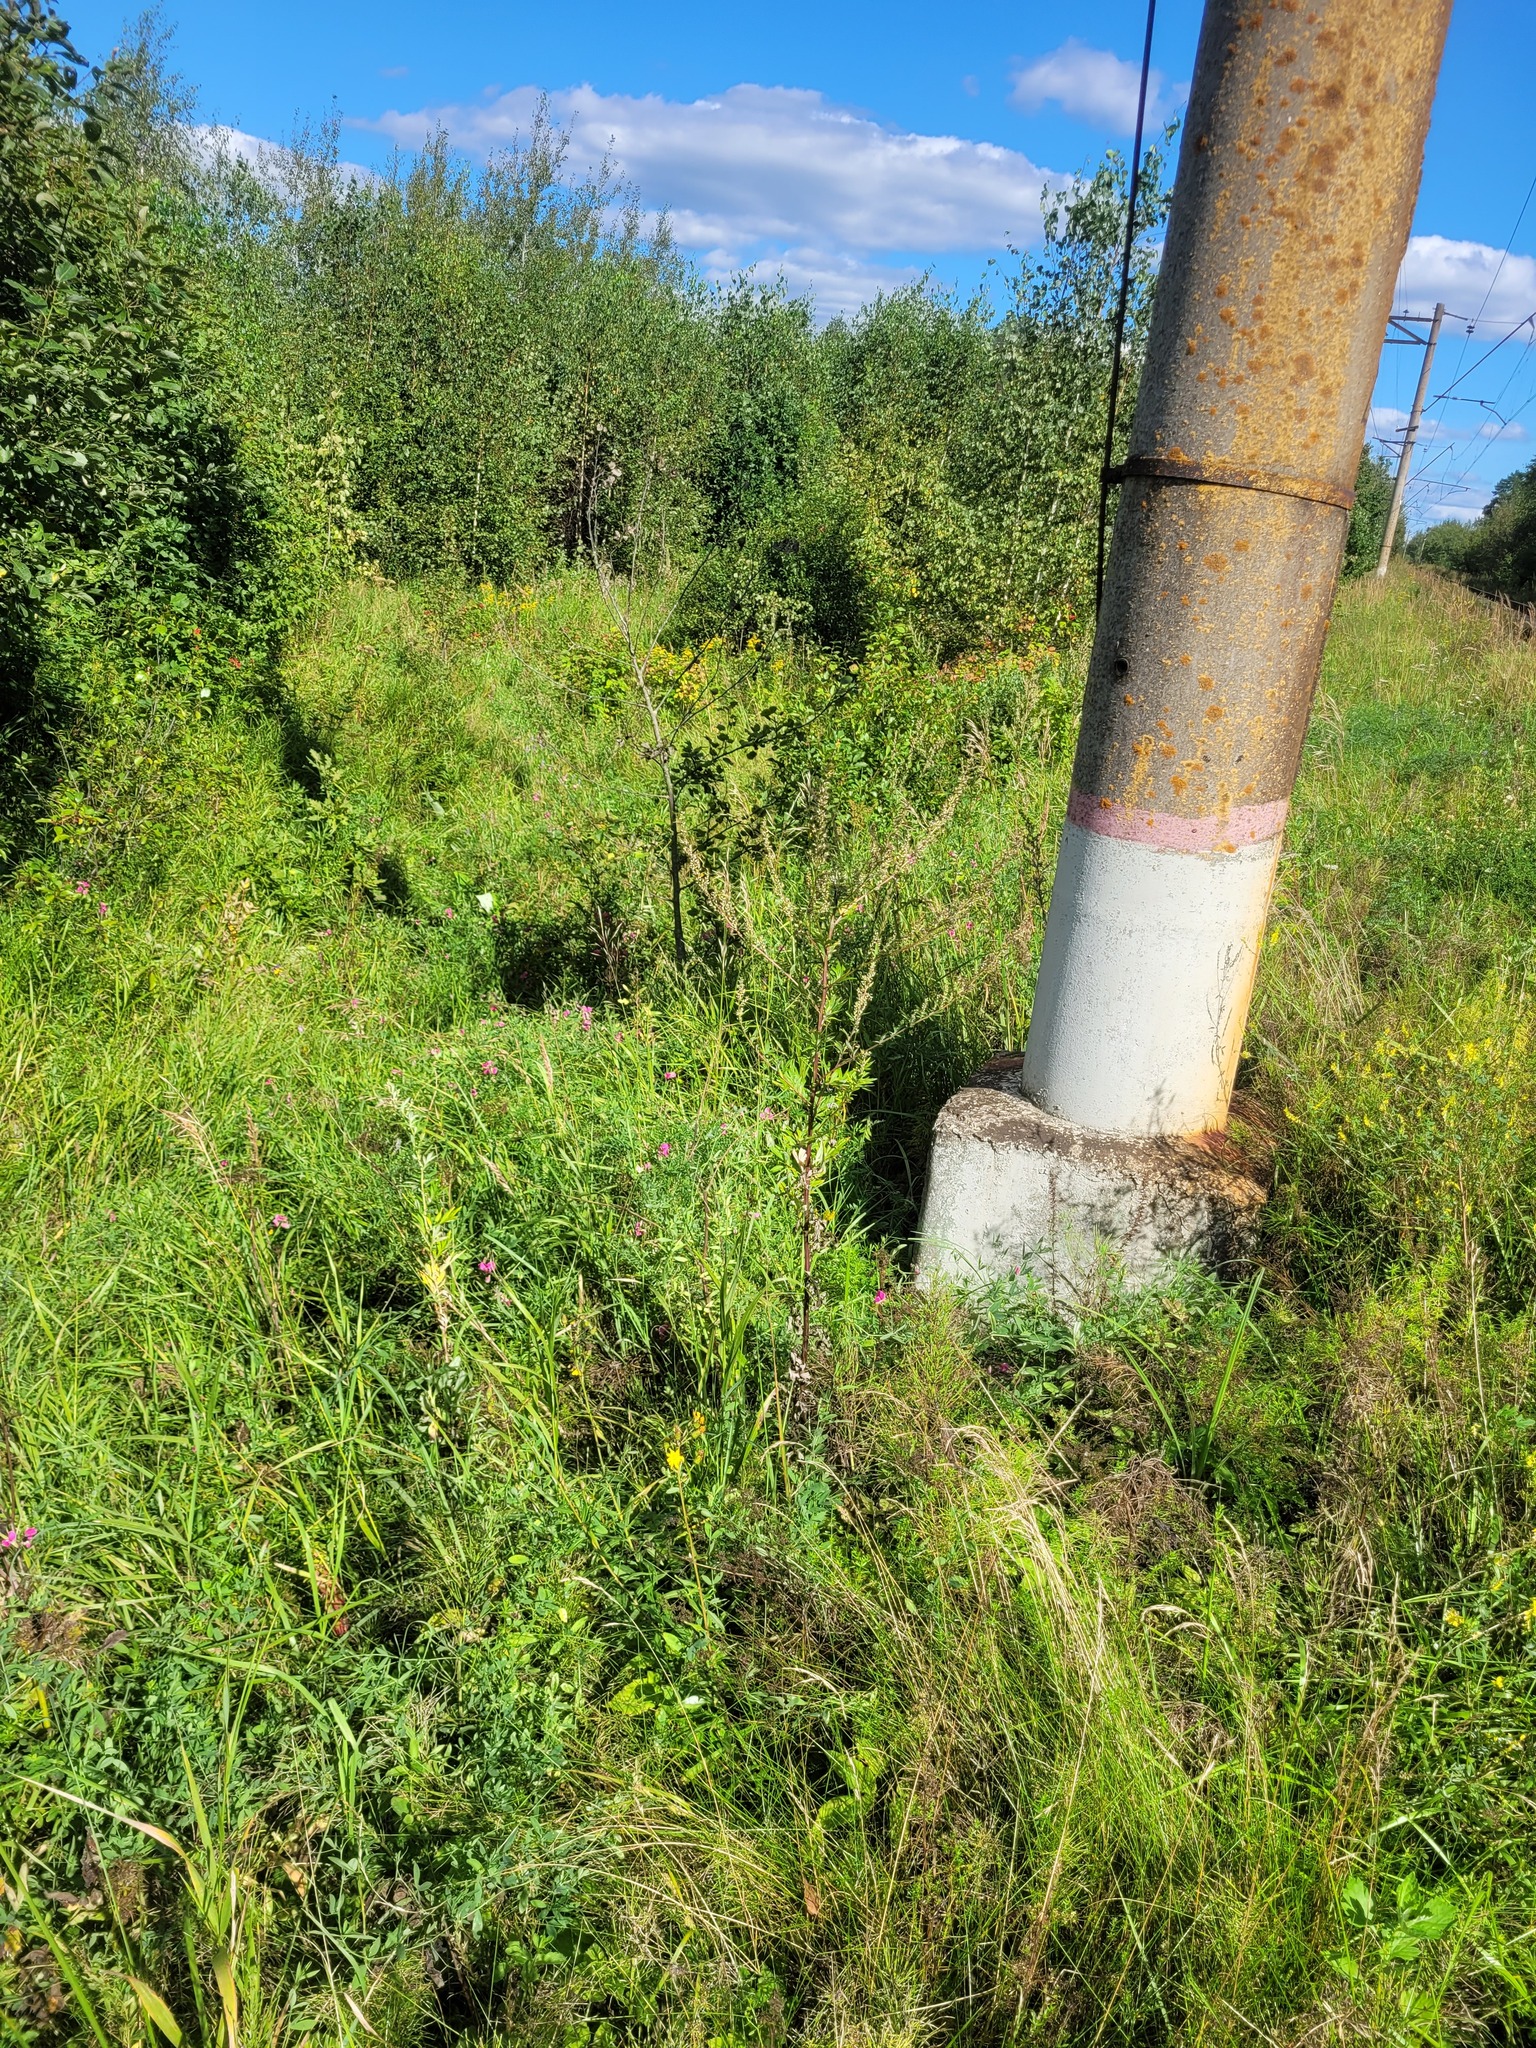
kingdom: Plantae
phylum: Tracheophyta
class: Magnoliopsida
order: Asterales
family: Asteraceae
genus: Artemisia
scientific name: Artemisia vulgaris
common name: Mugwort
